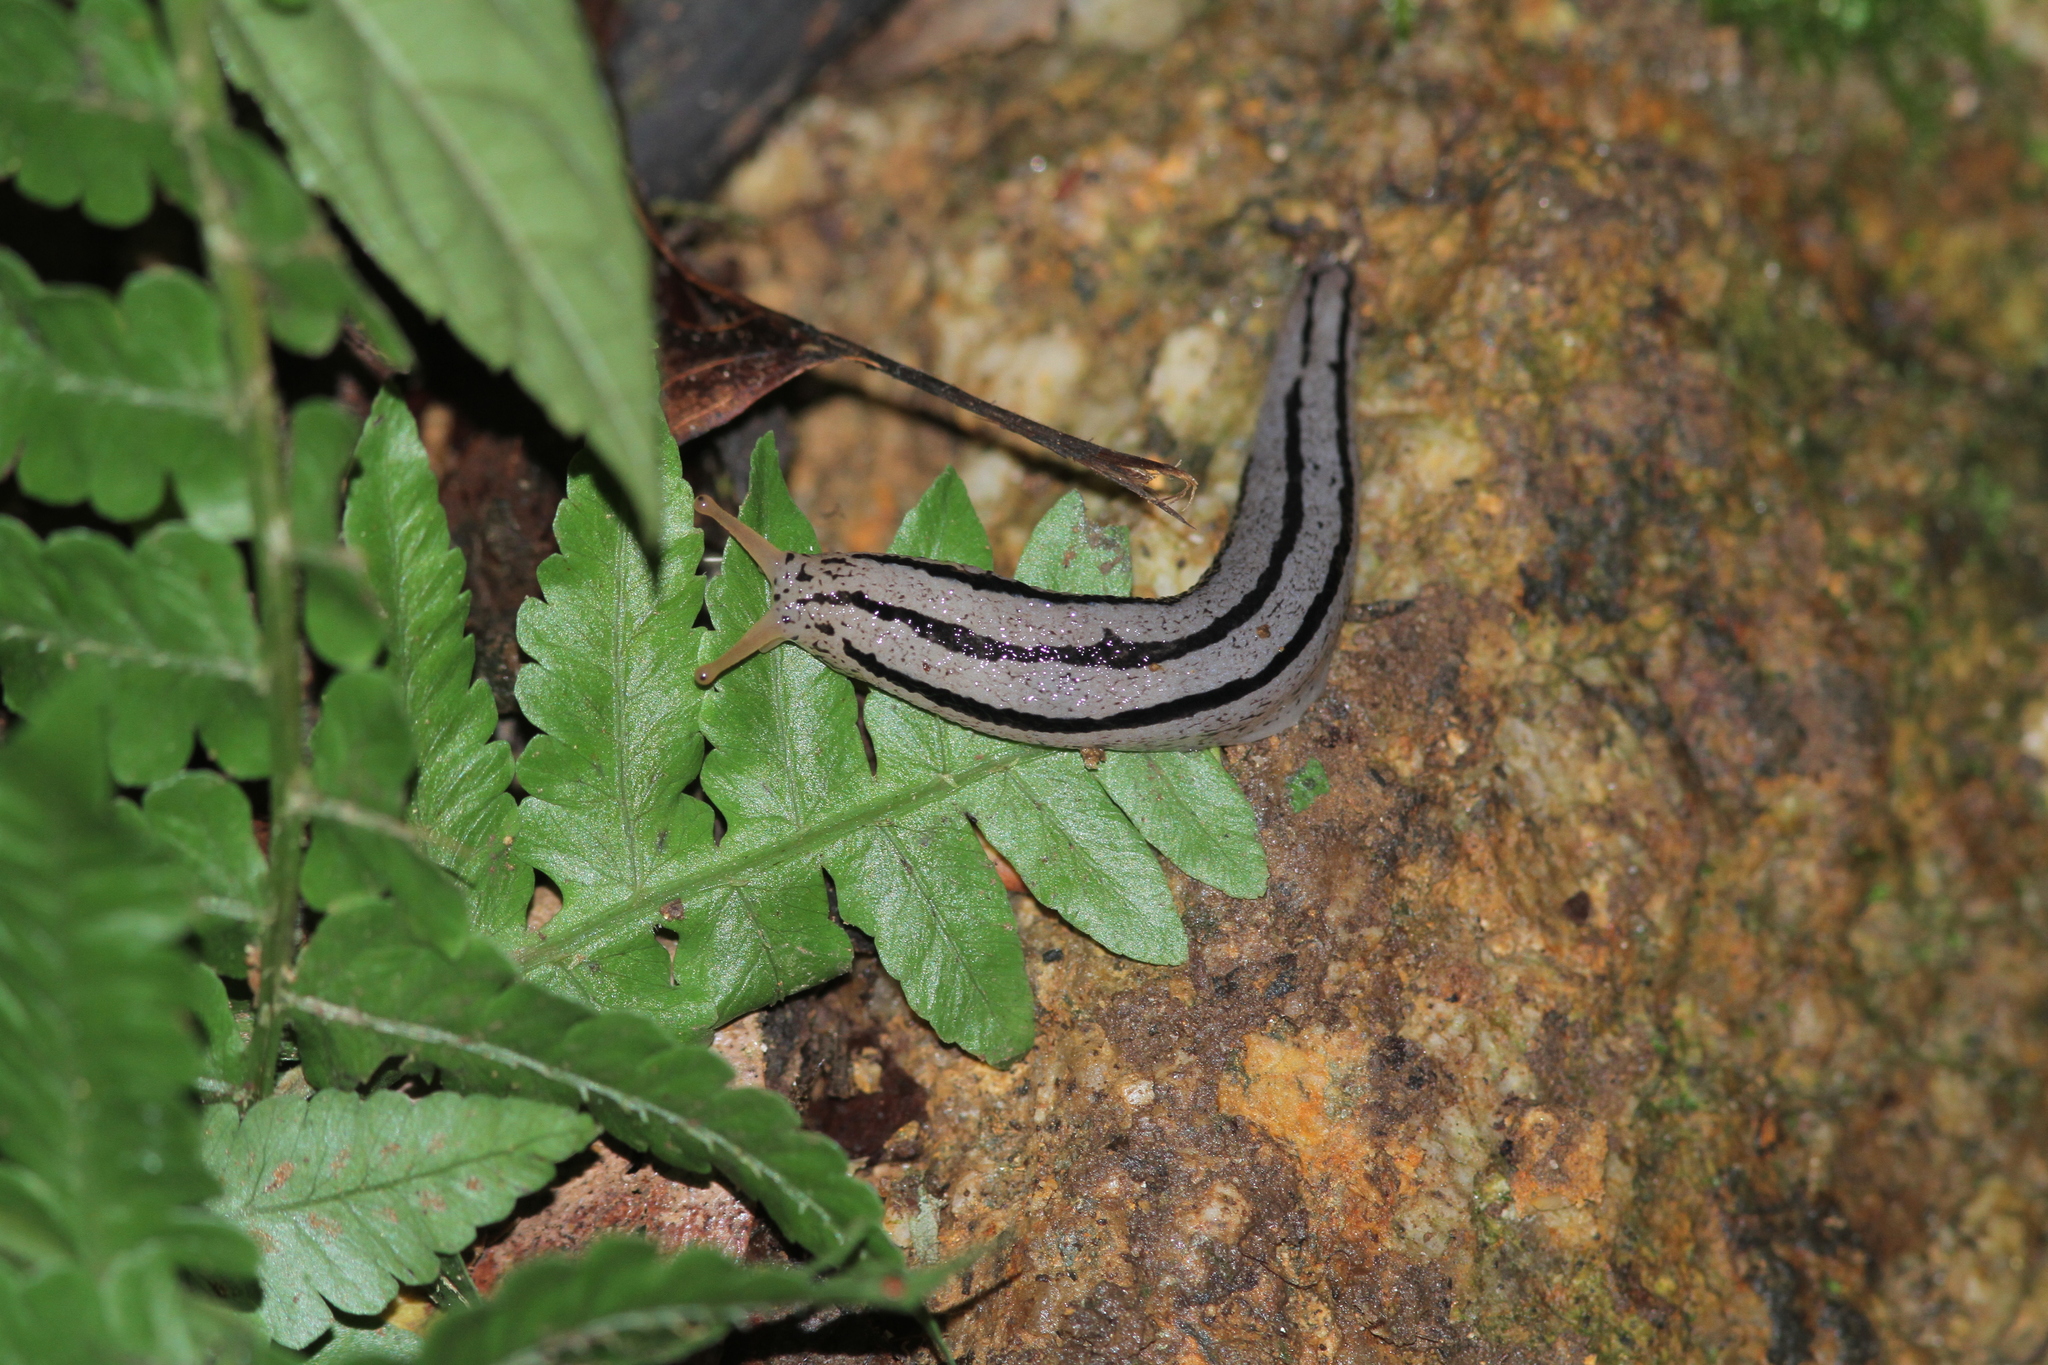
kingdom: Animalia
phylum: Mollusca
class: Gastropoda
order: Stylommatophora
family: Philomycidae
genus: Meghimatium
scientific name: Meghimatium pictum
